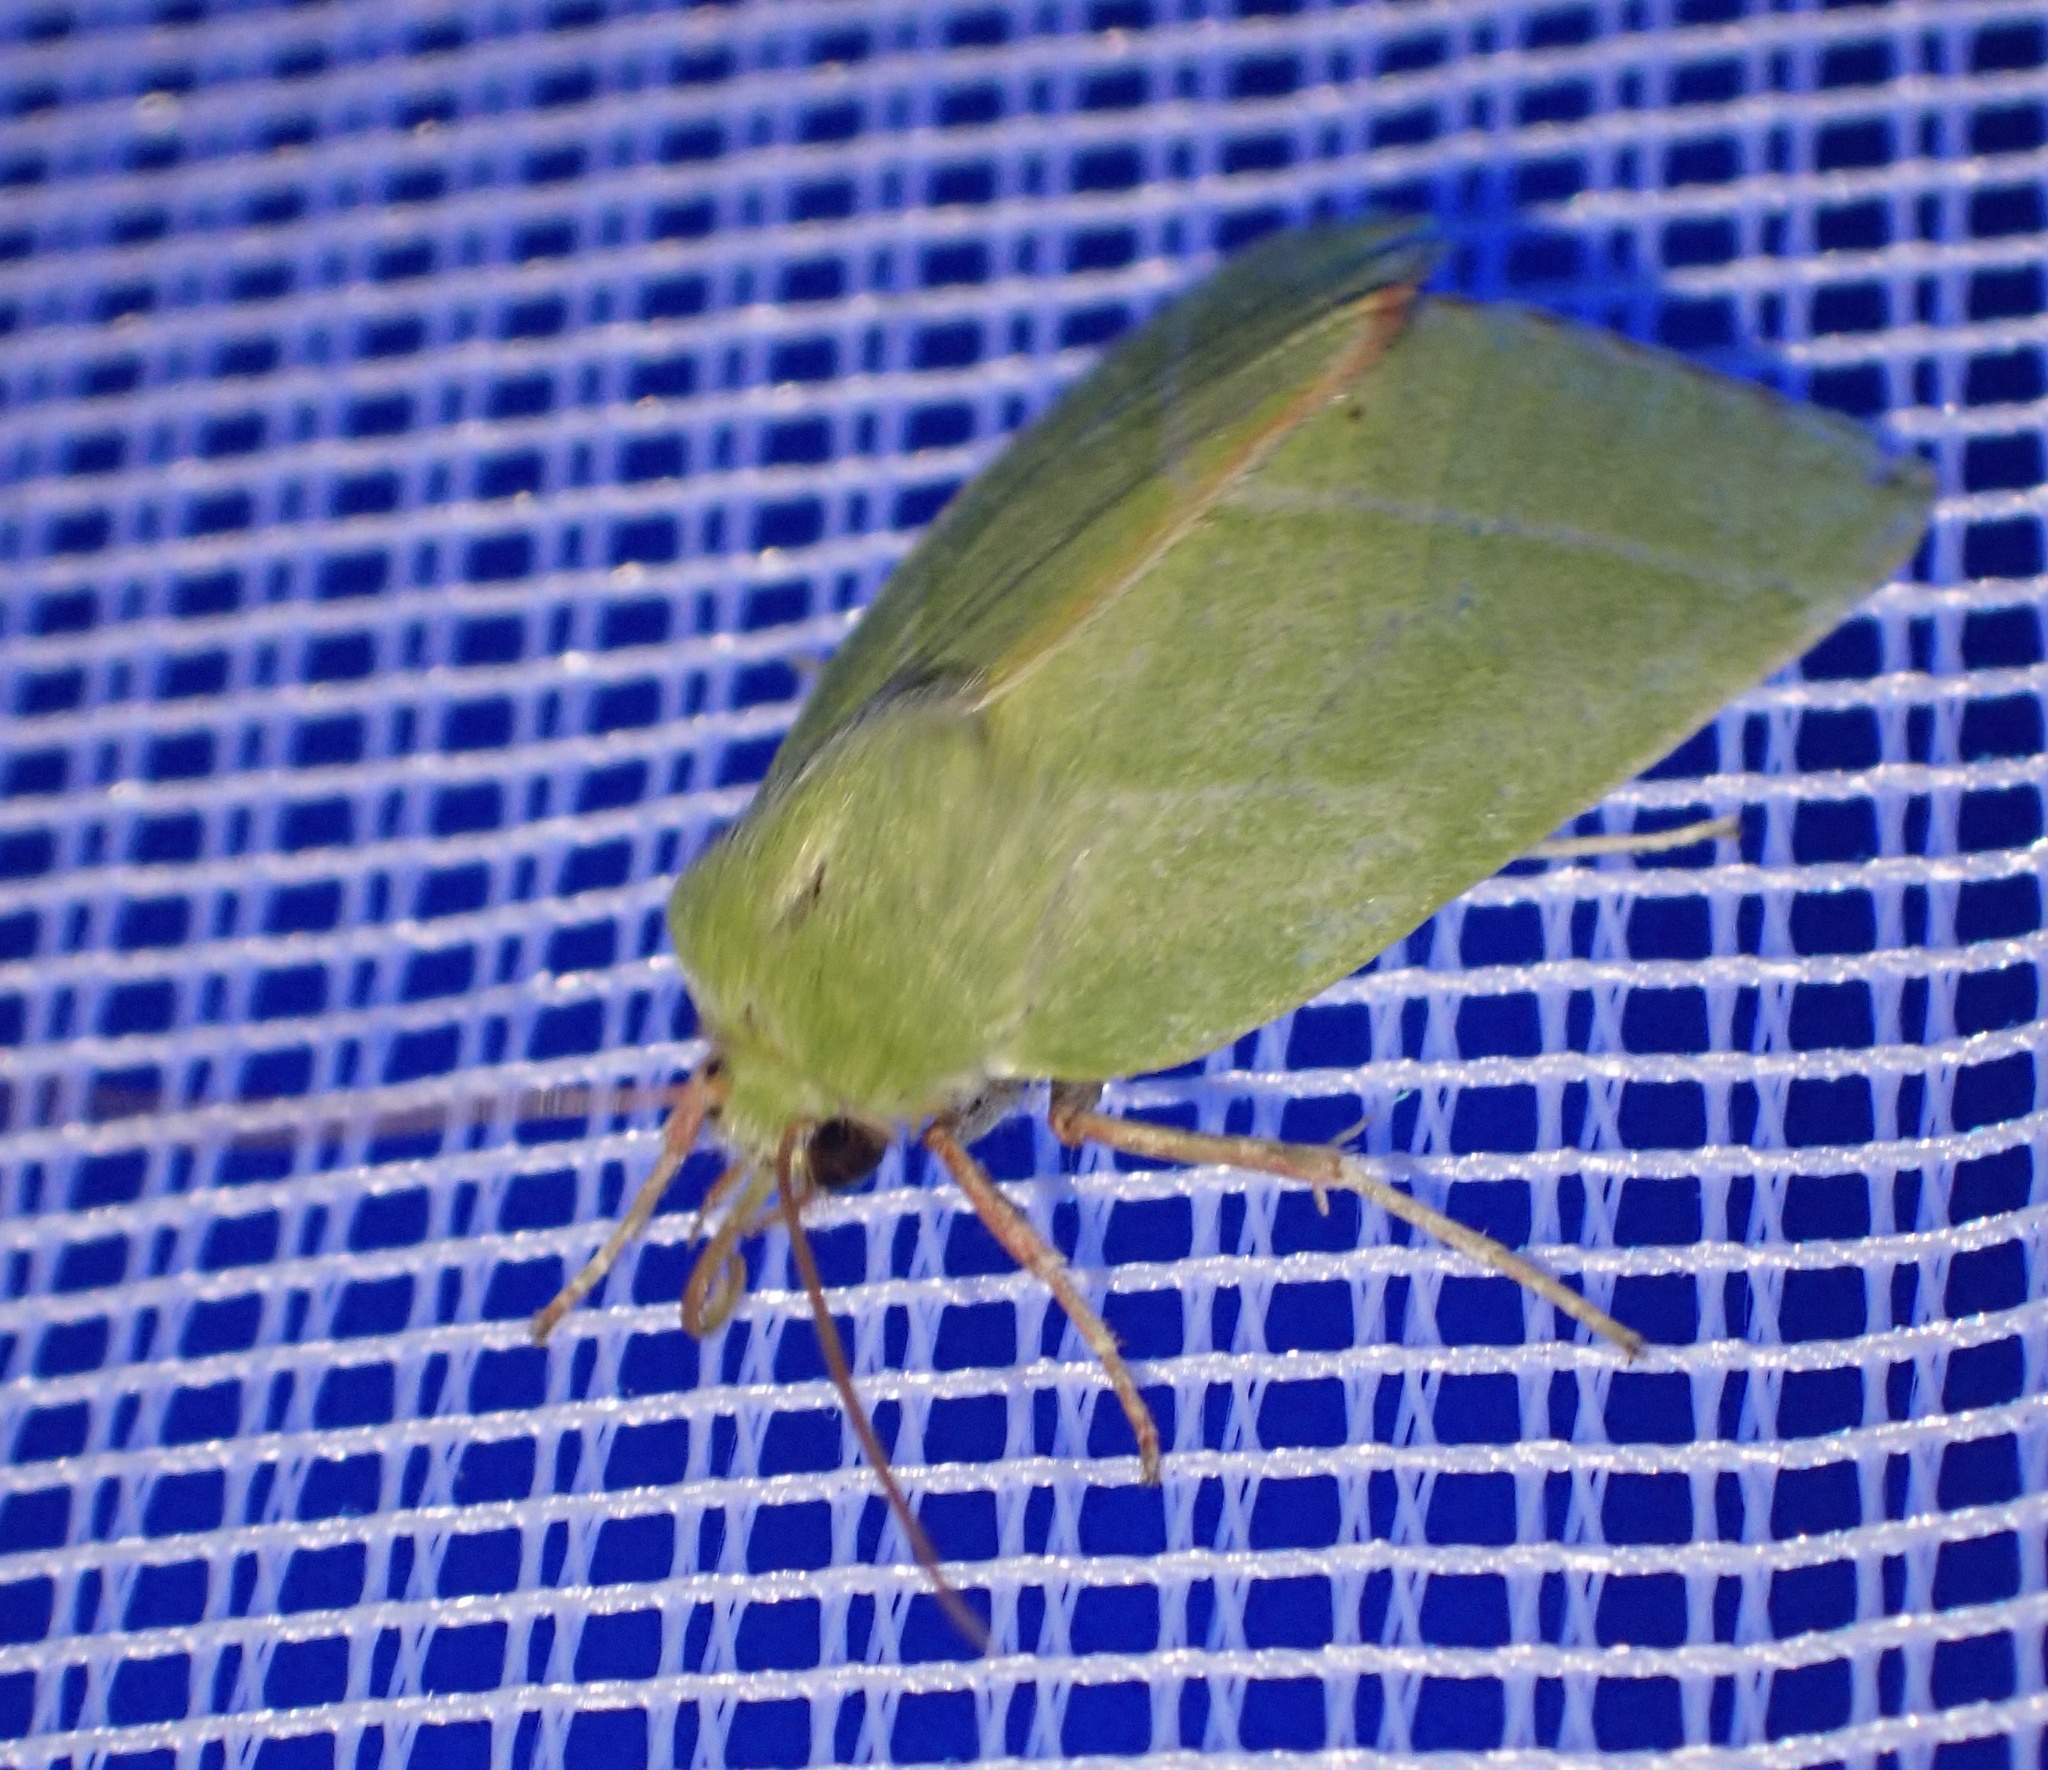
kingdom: Animalia
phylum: Arthropoda
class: Insecta
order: Lepidoptera
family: Nolidae
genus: Pseudoips
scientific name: Pseudoips prasinana
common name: Green silver-lines
